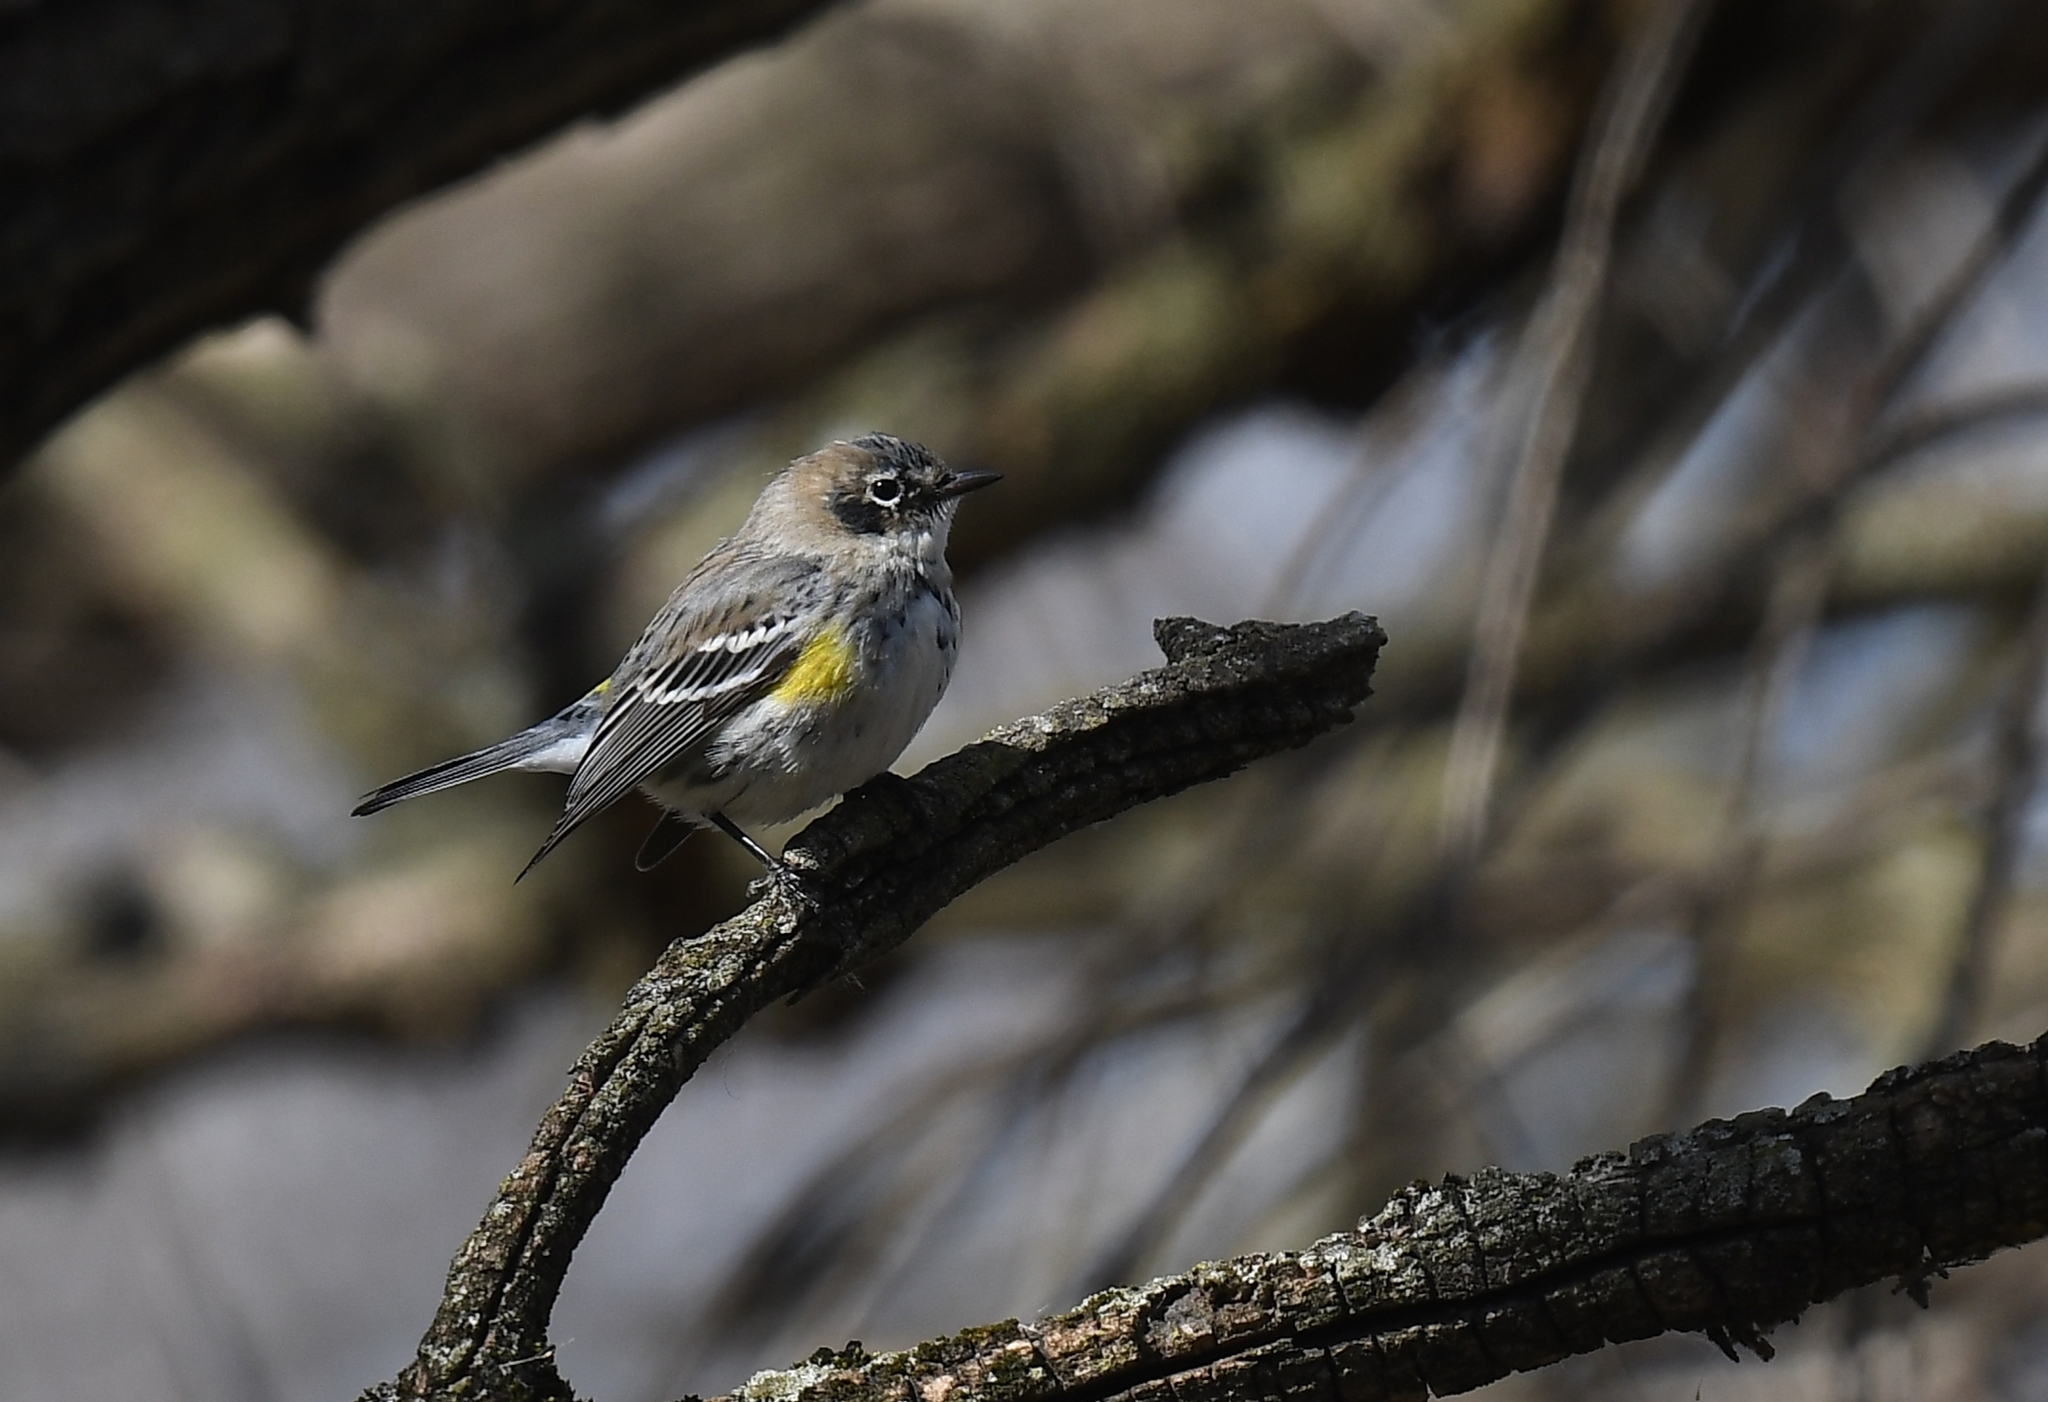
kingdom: Animalia
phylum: Chordata
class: Aves
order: Passeriformes
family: Parulidae
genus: Setophaga
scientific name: Setophaga coronata
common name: Myrtle warbler
